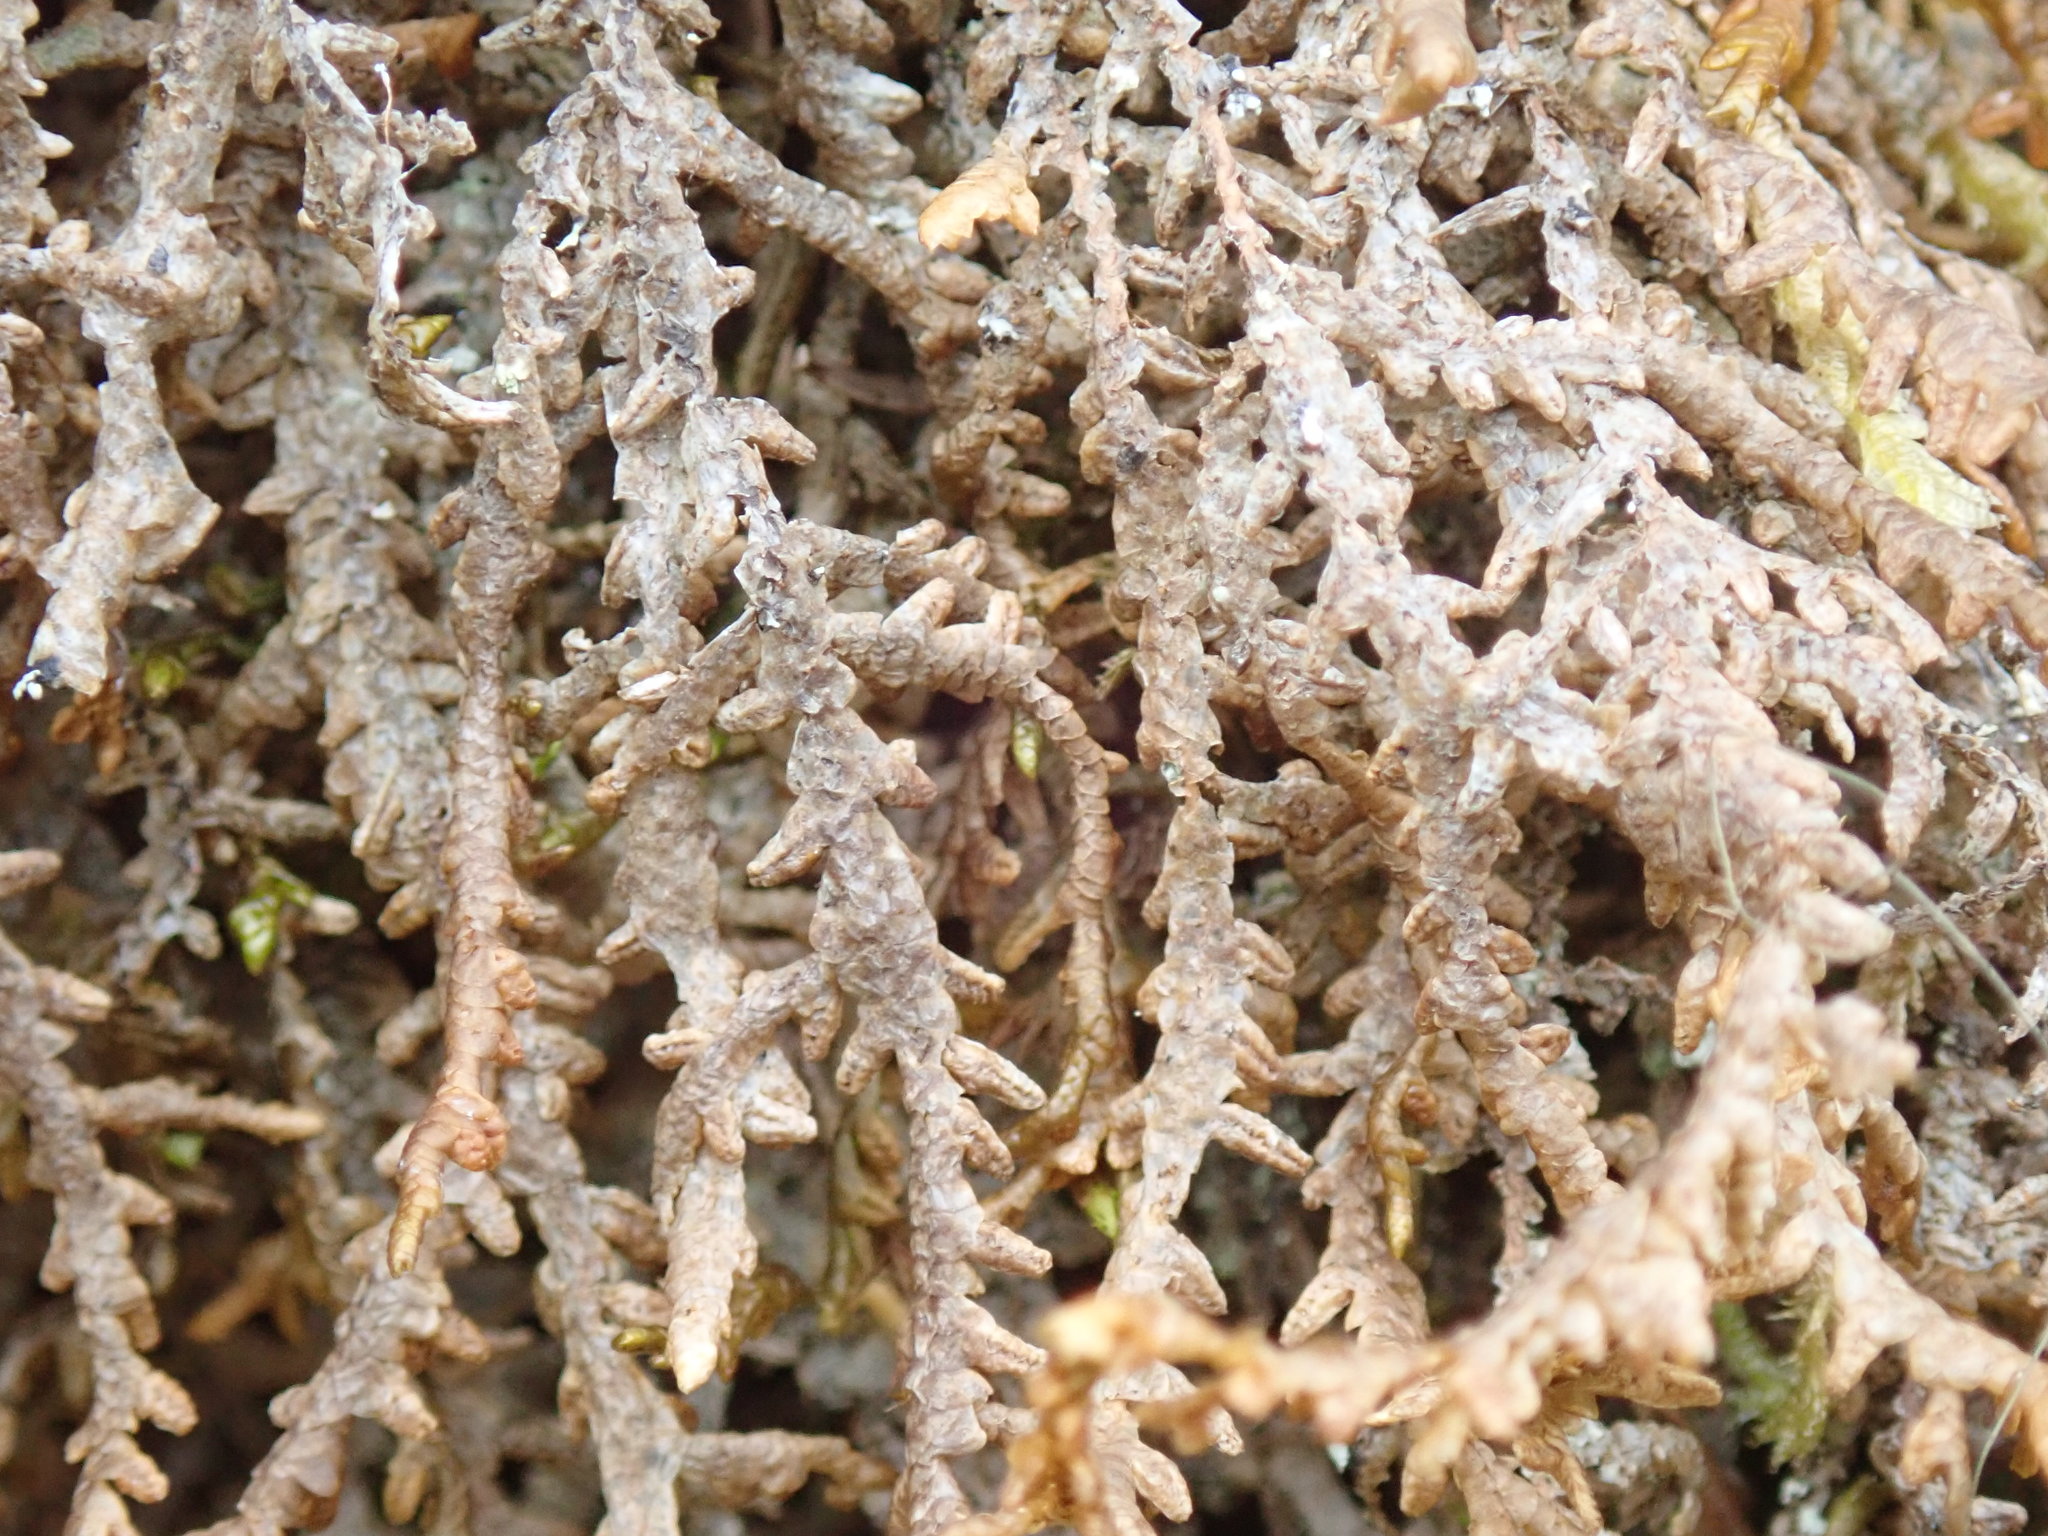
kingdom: Plantae
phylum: Marchantiophyta
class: Jungermanniopsida
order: Porellales
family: Porellaceae
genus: Porella
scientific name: Porella navicularis
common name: Tree ruffle liverwort
